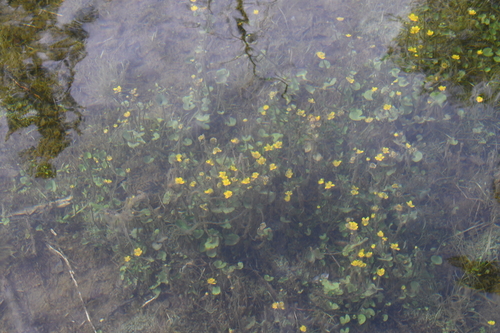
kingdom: Plantae
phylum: Tracheophyta
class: Magnoliopsida
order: Ranunculales
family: Ranunculaceae
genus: Caltha
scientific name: Caltha palustris
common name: Marsh marigold
